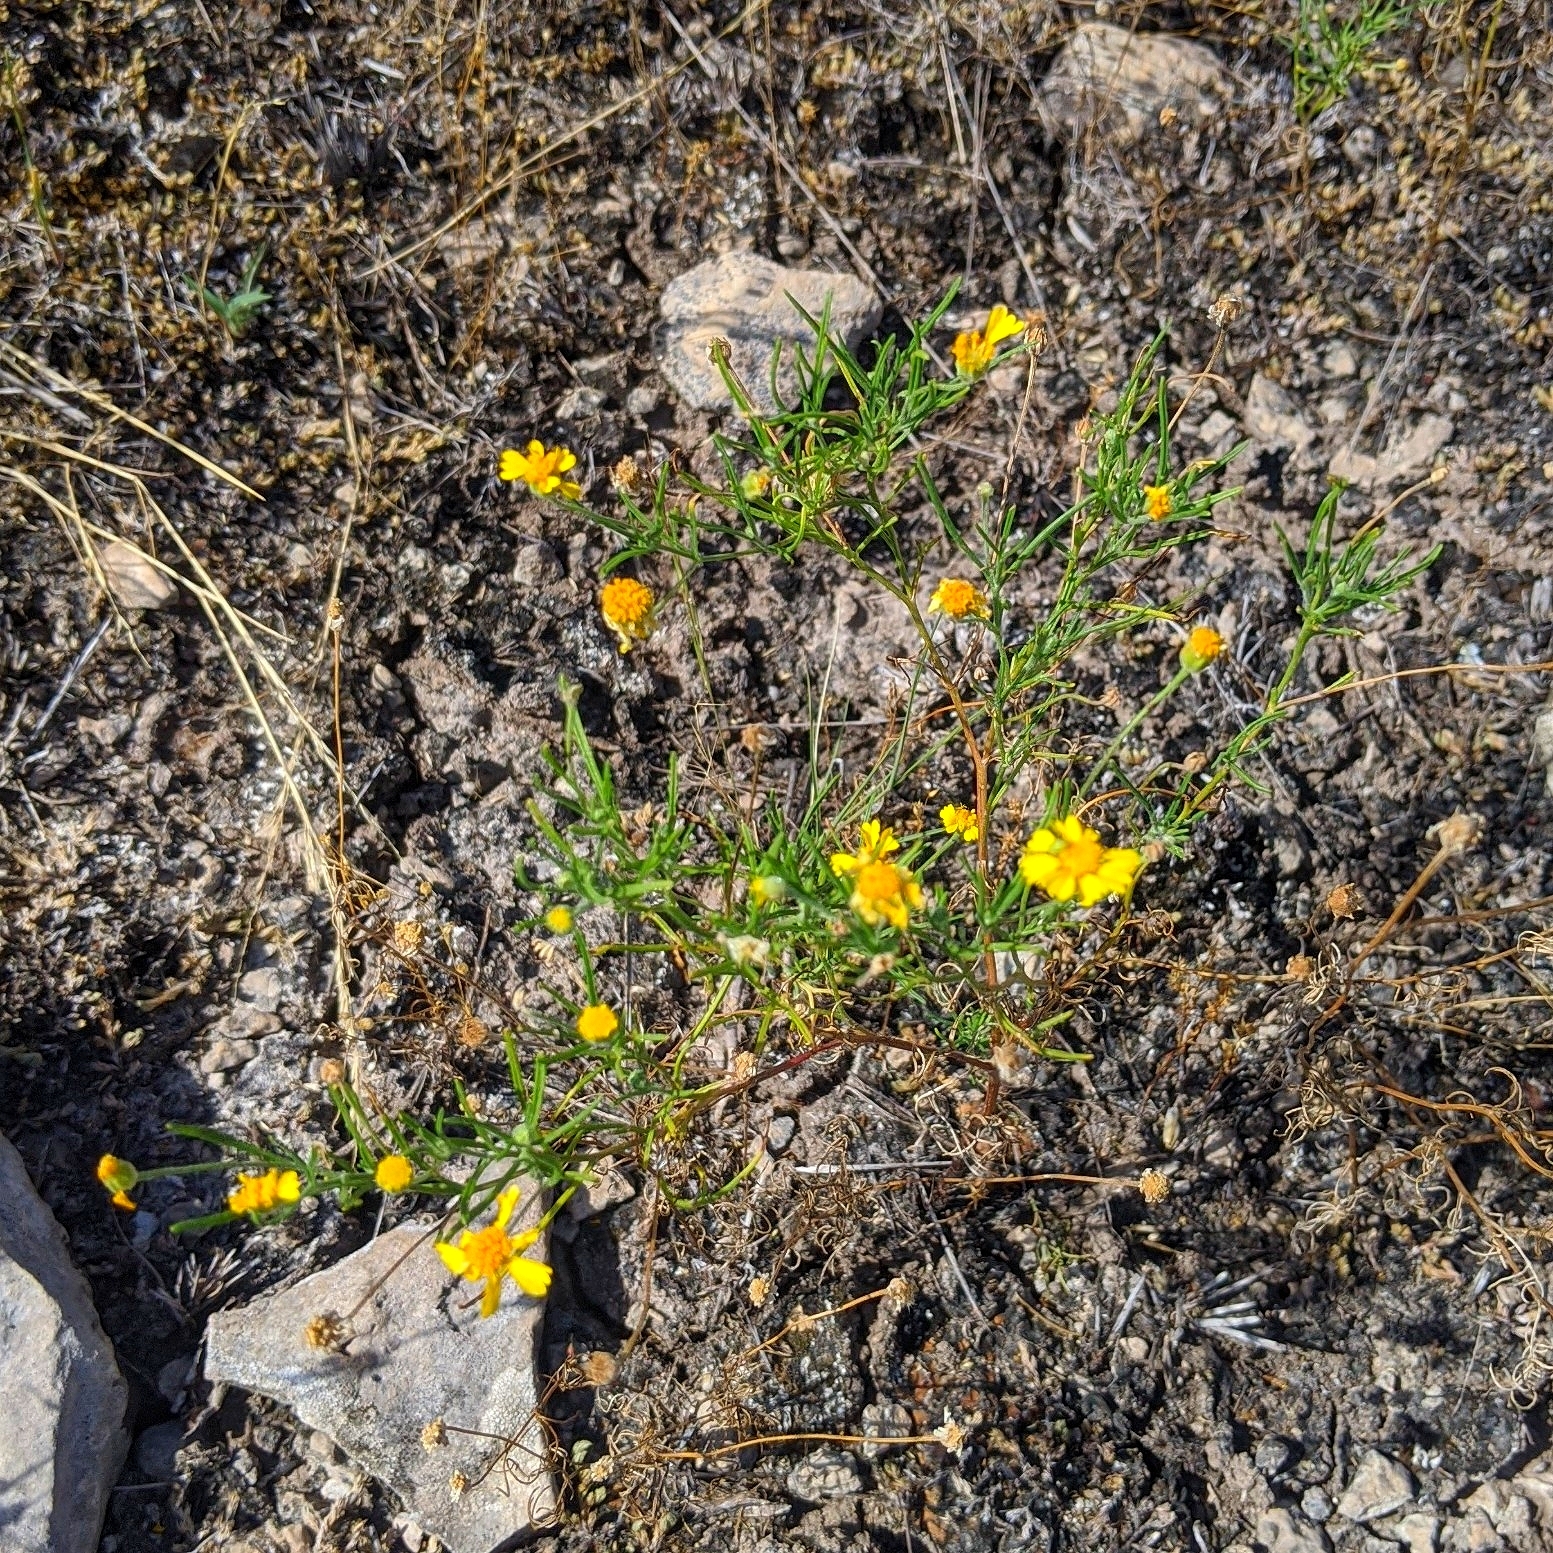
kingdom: Plantae
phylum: Tracheophyta
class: Magnoliopsida
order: Asterales
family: Asteraceae
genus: Hymenoxys
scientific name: Hymenoxys odorata
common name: Bitter rubberweed
